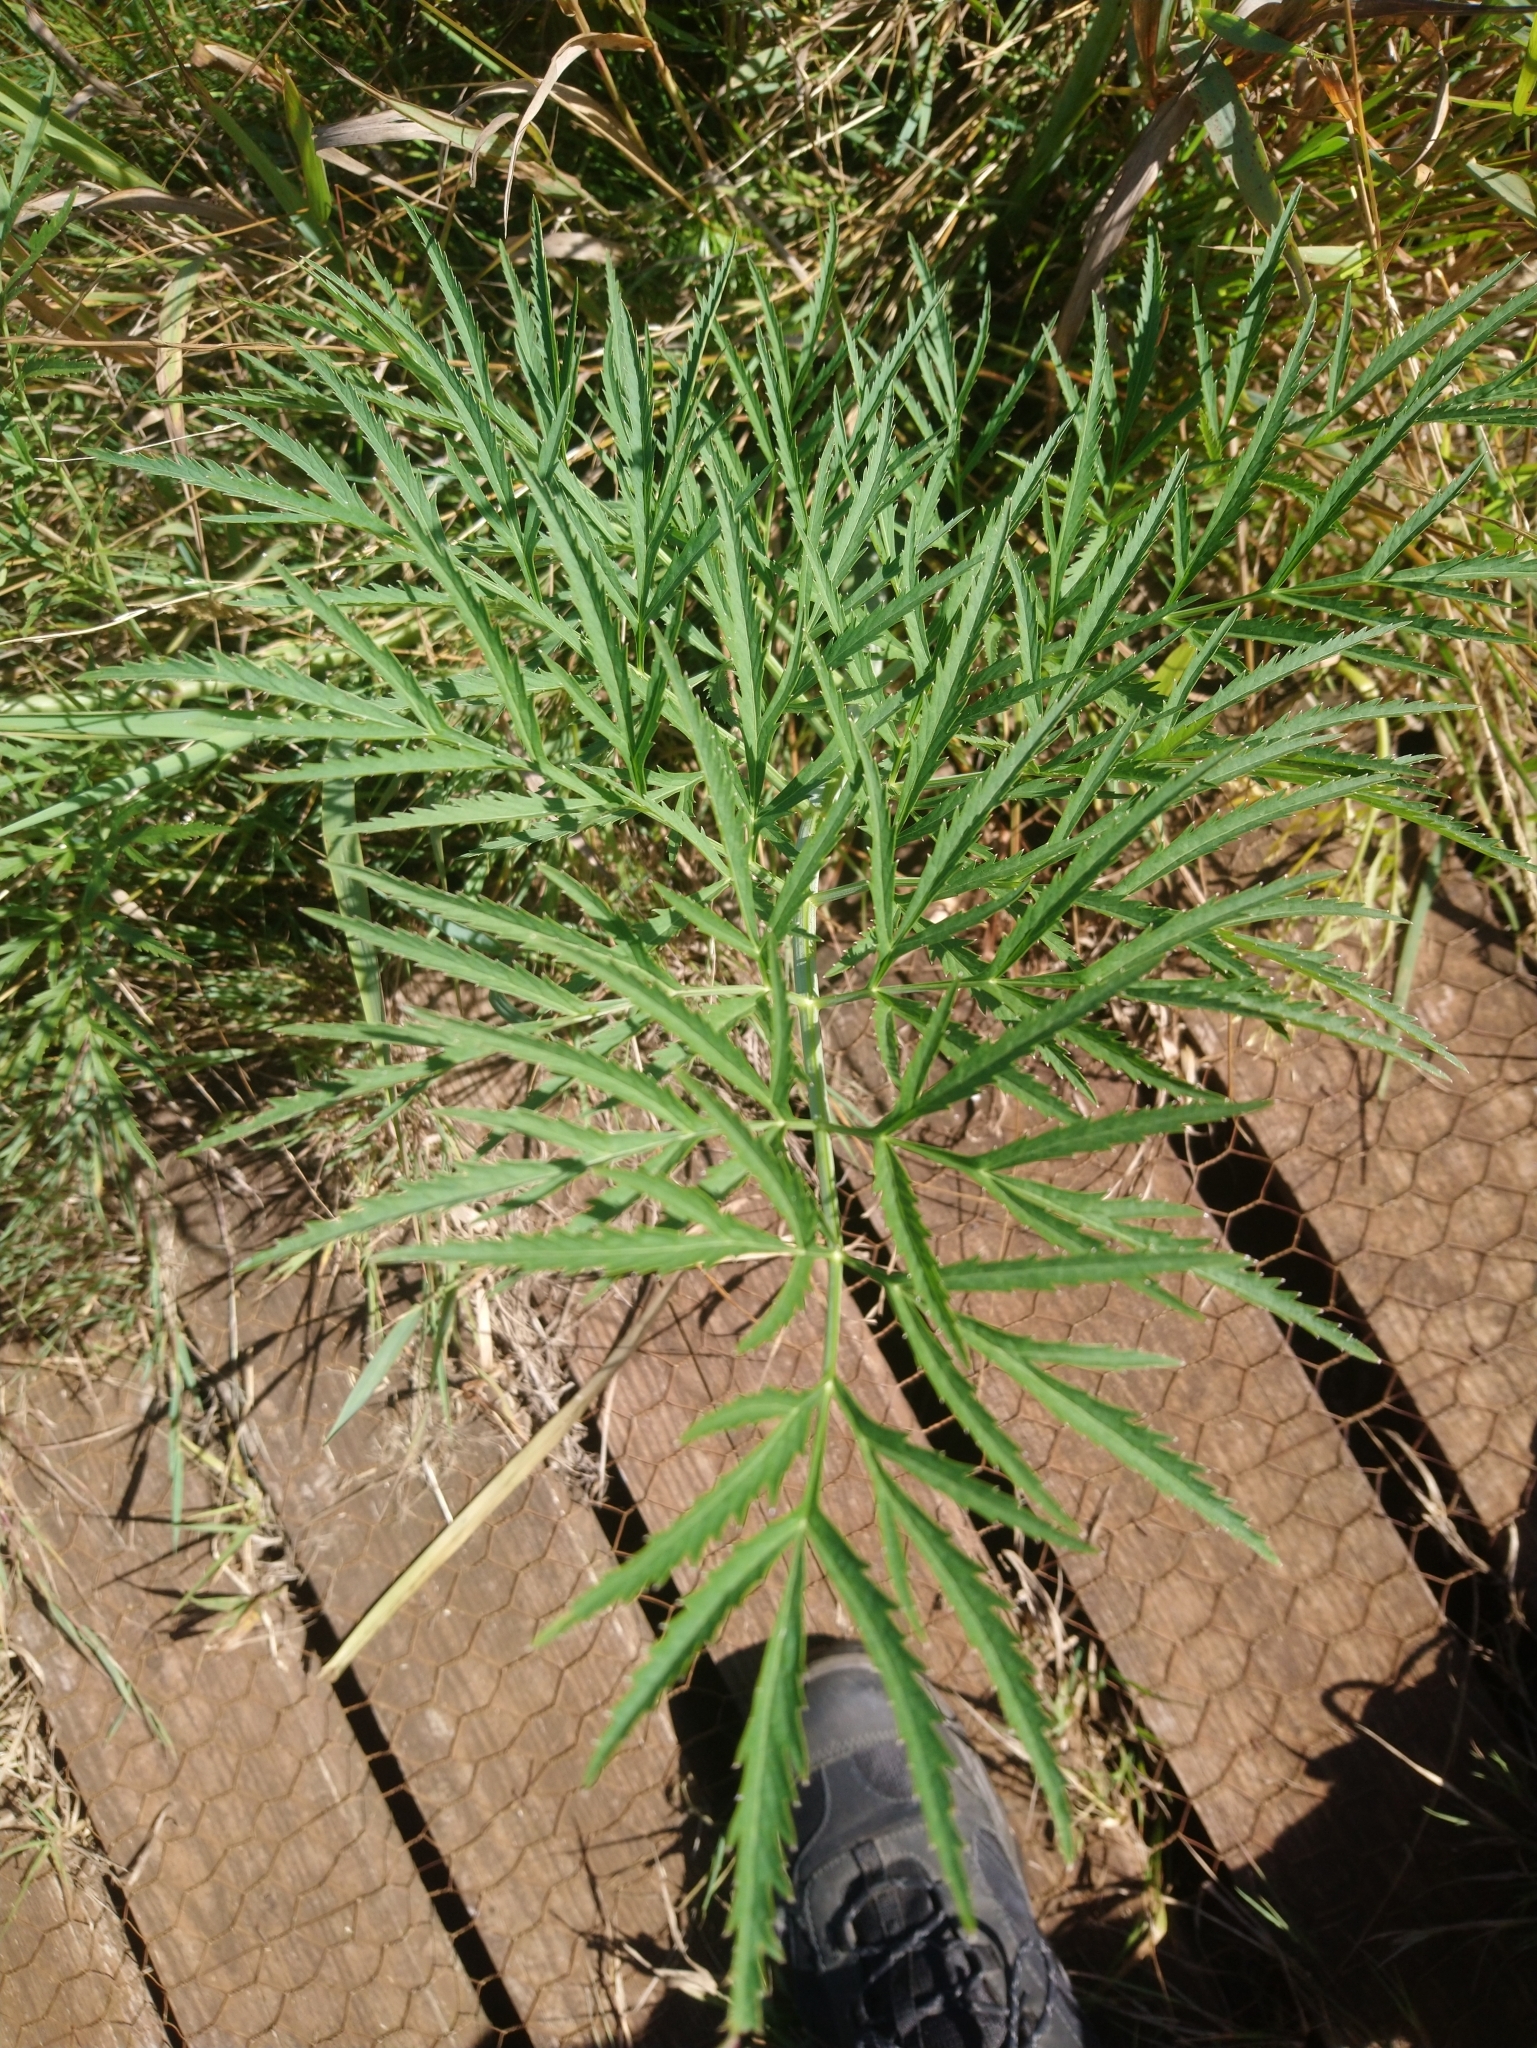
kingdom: Plantae
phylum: Tracheophyta
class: Magnoliopsida
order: Apiales
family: Apiaceae
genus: Cicuta
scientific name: Cicuta virosa
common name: Cowbane
